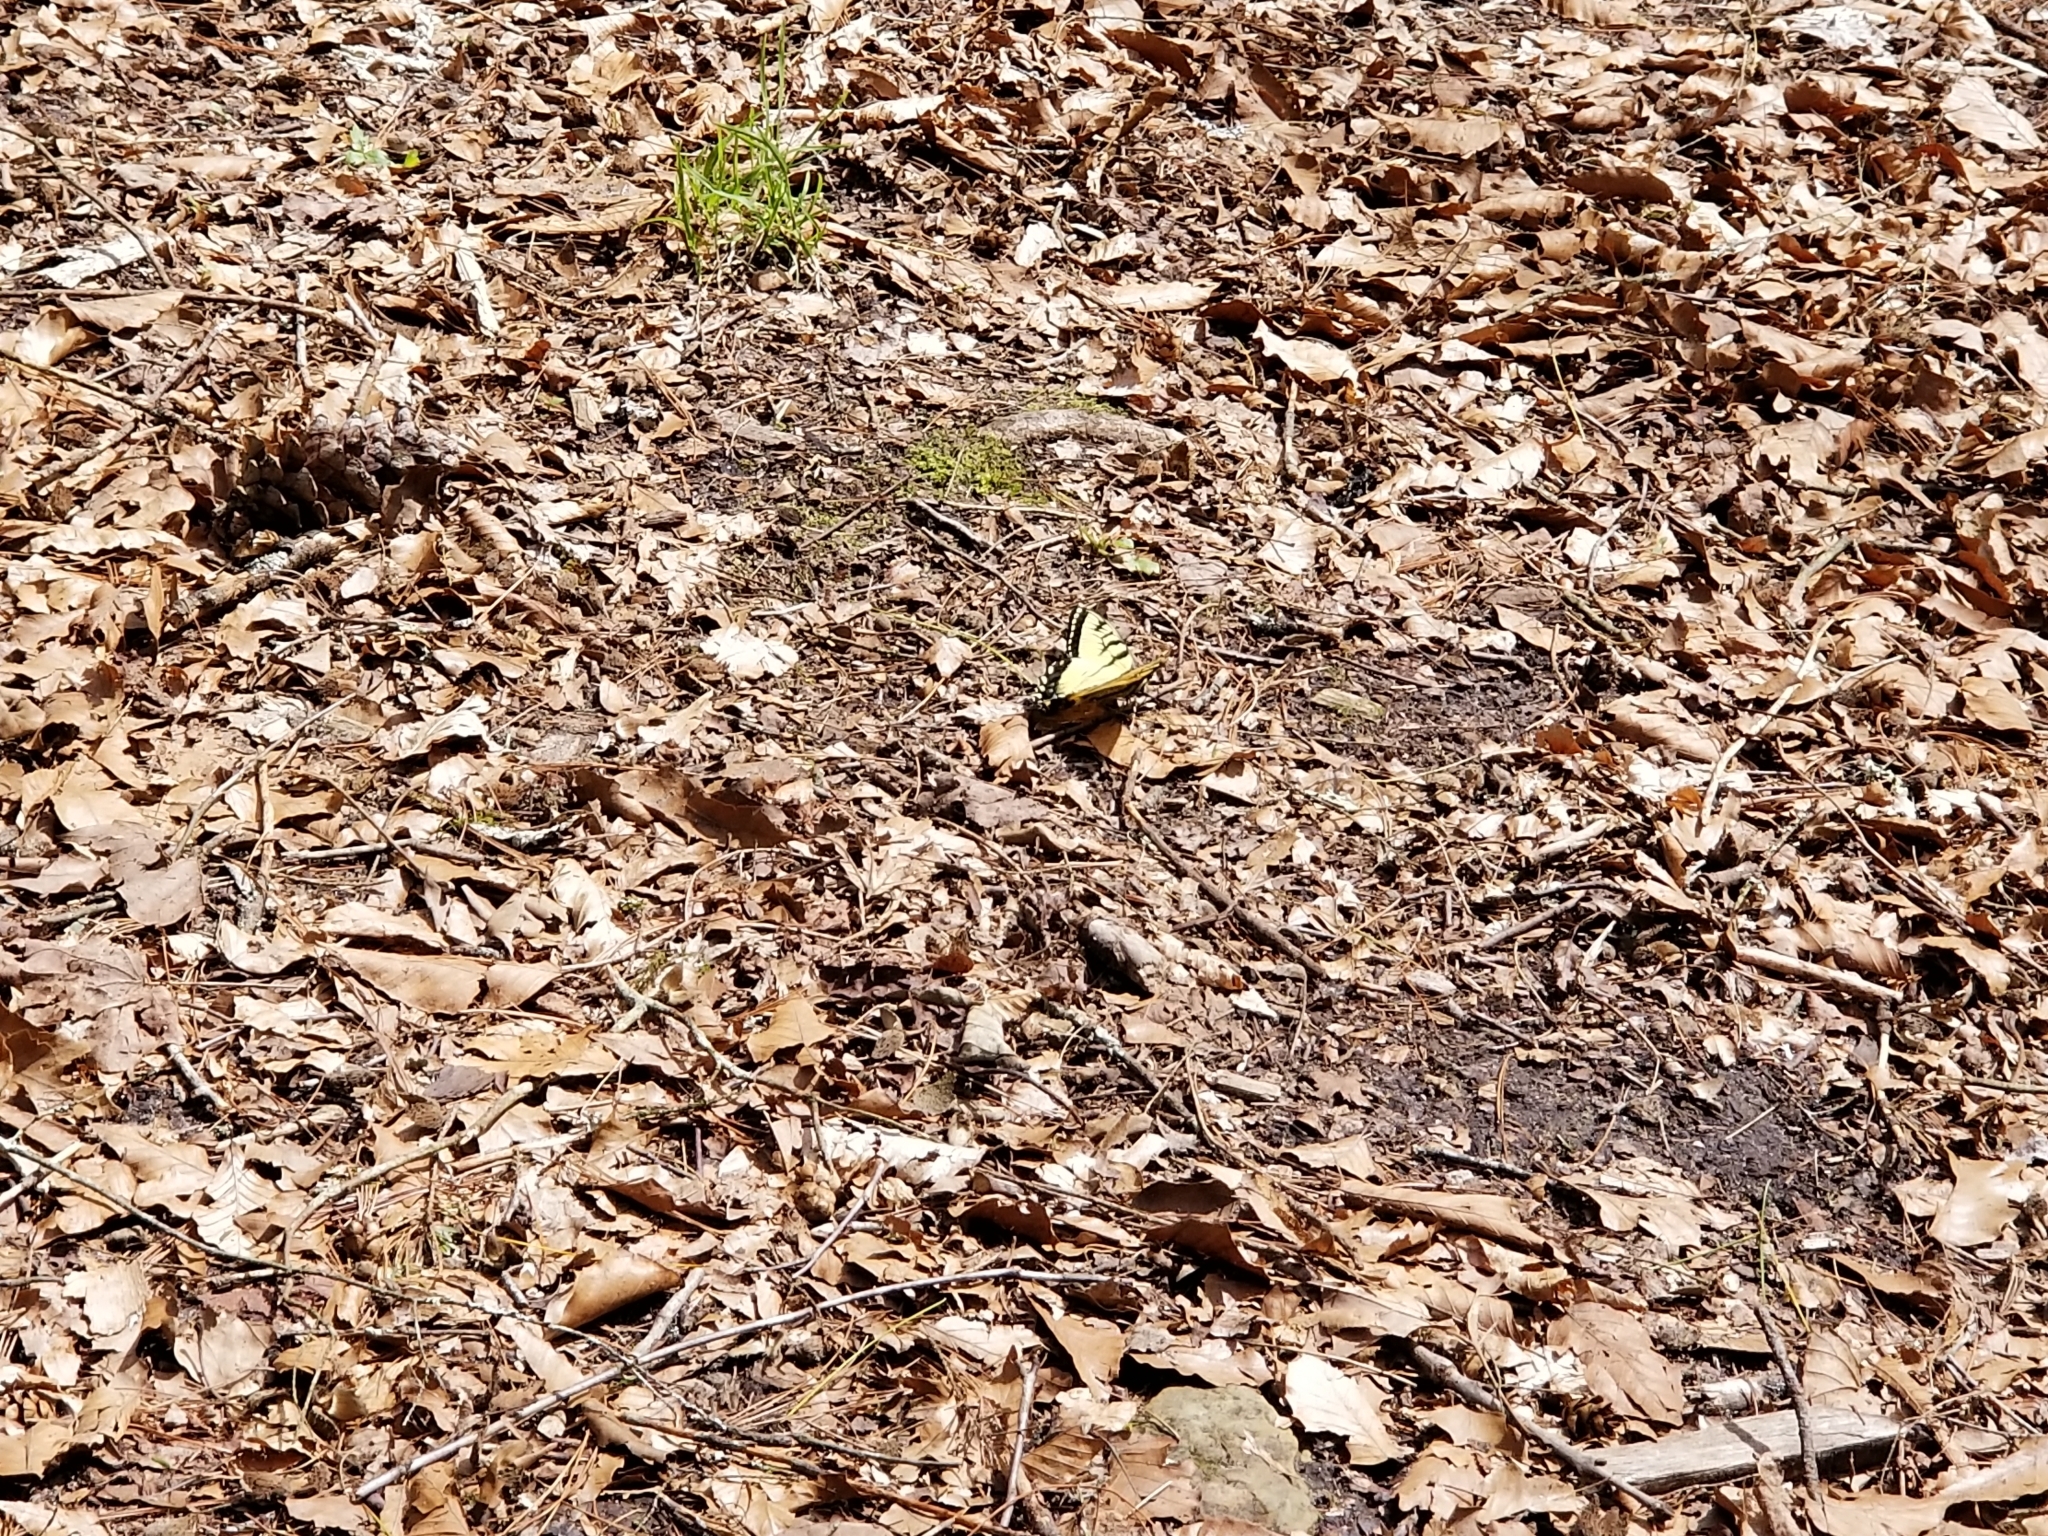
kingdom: Animalia
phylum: Arthropoda
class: Insecta
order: Lepidoptera
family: Papilionidae
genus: Papilio
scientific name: Papilio glaucus
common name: Tiger swallowtail
